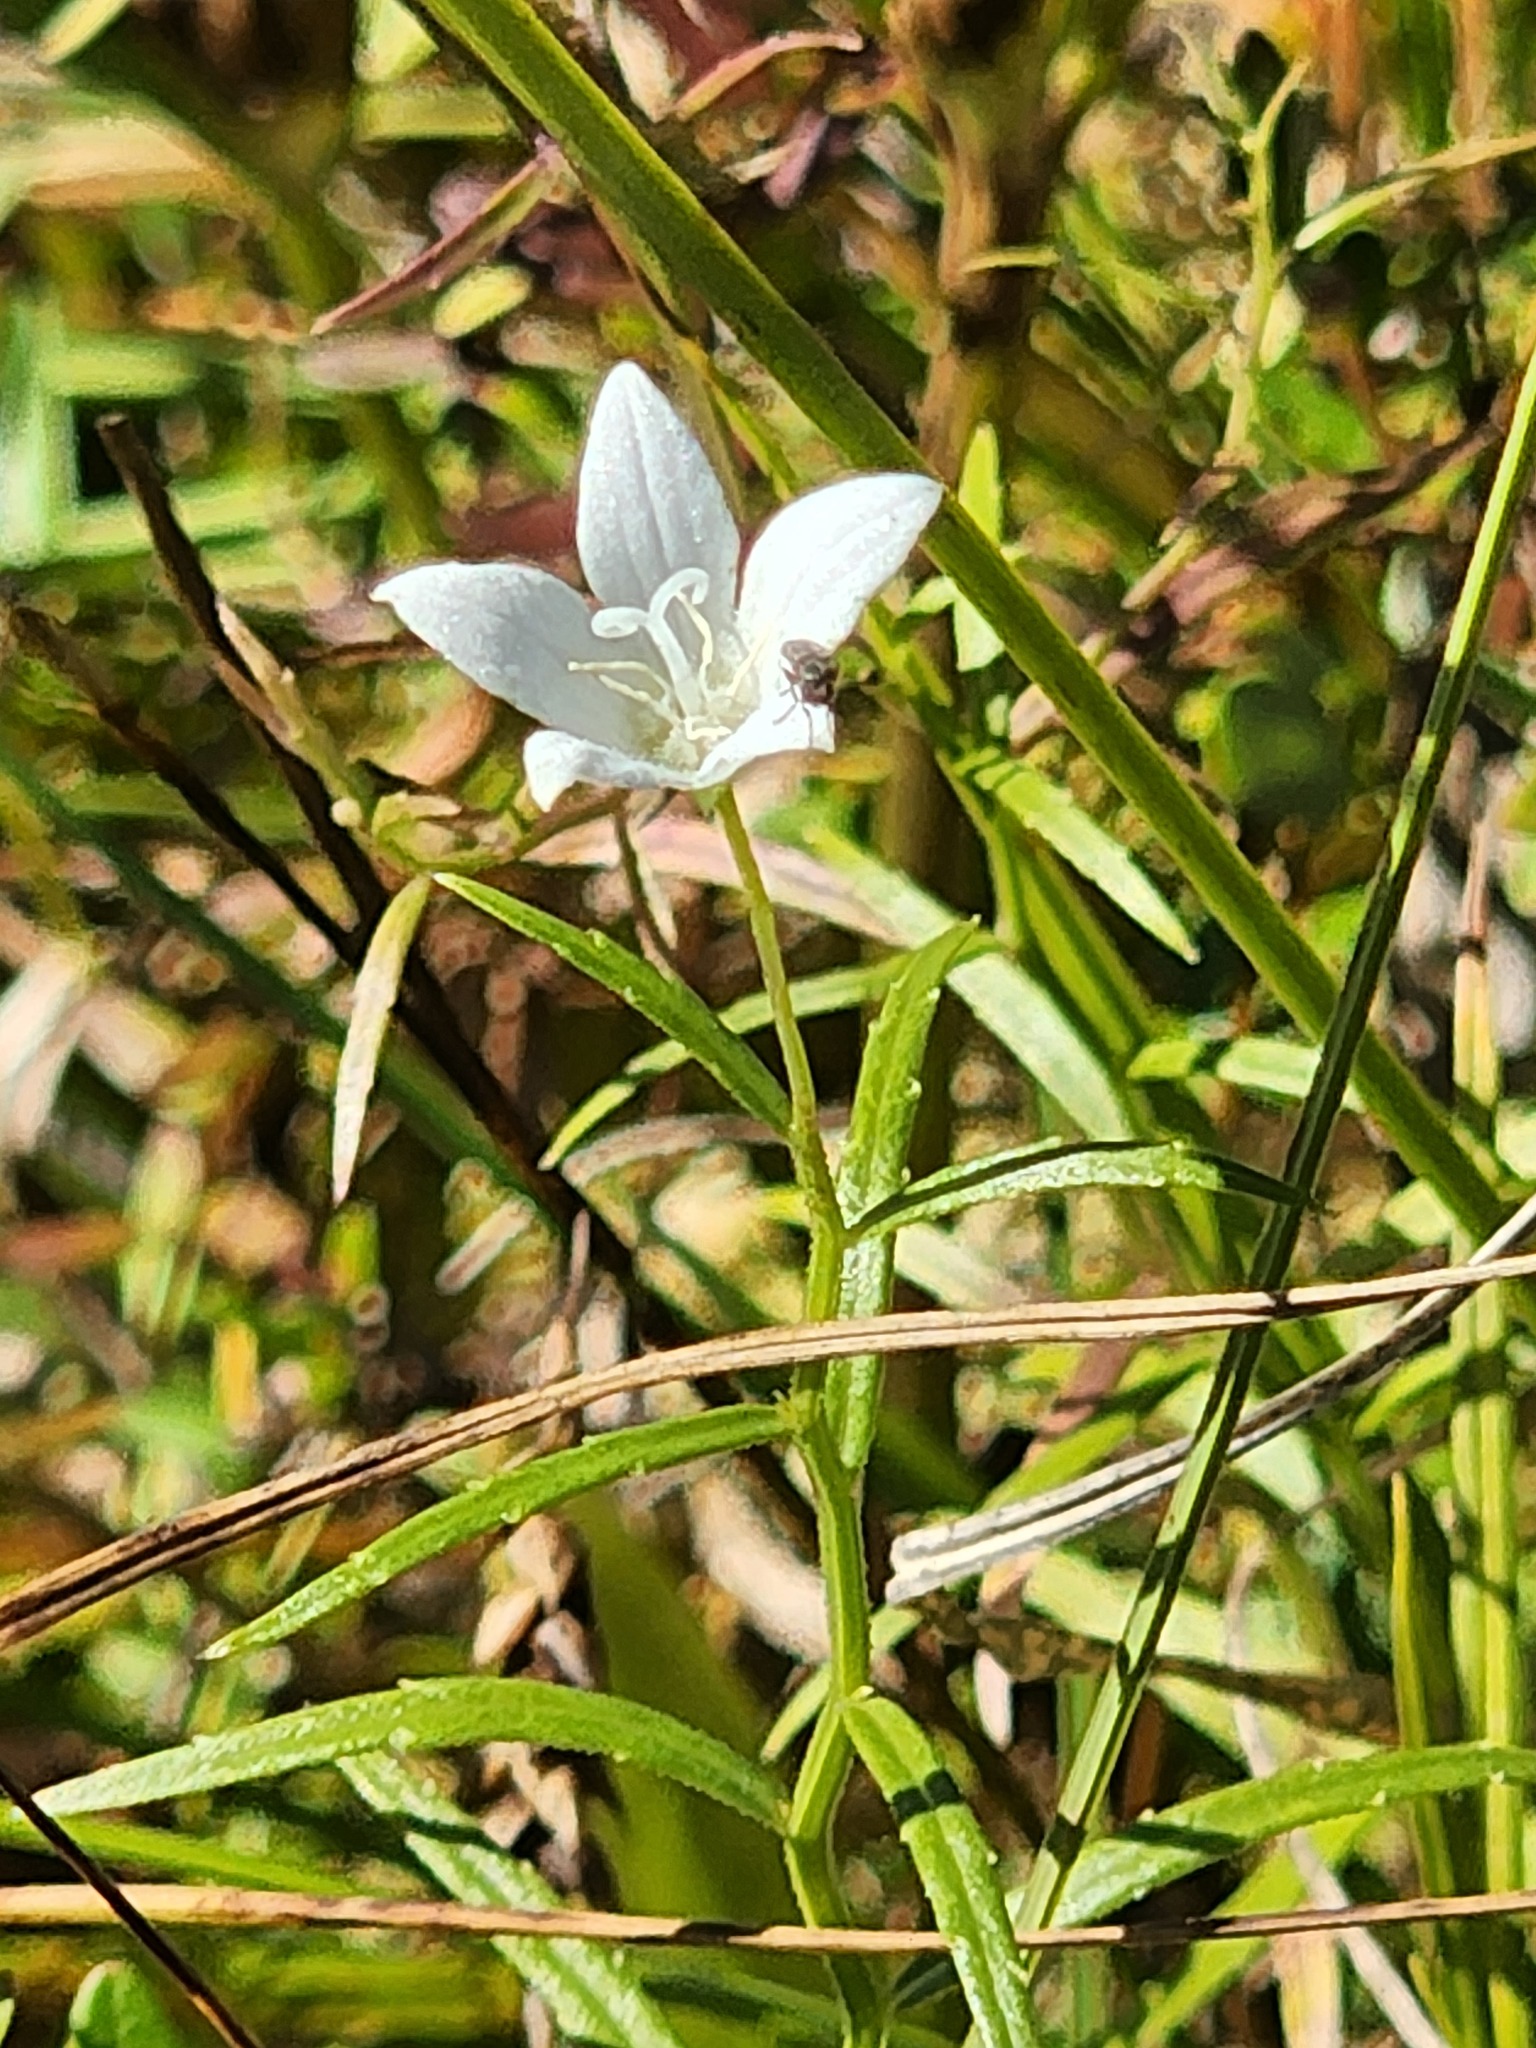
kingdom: Plantae
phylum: Tracheophyta
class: Magnoliopsida
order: Asterales
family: Campanulaceae
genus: Palustricodon
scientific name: Palustricodon aparinoides
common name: Bedstraw bellflower
